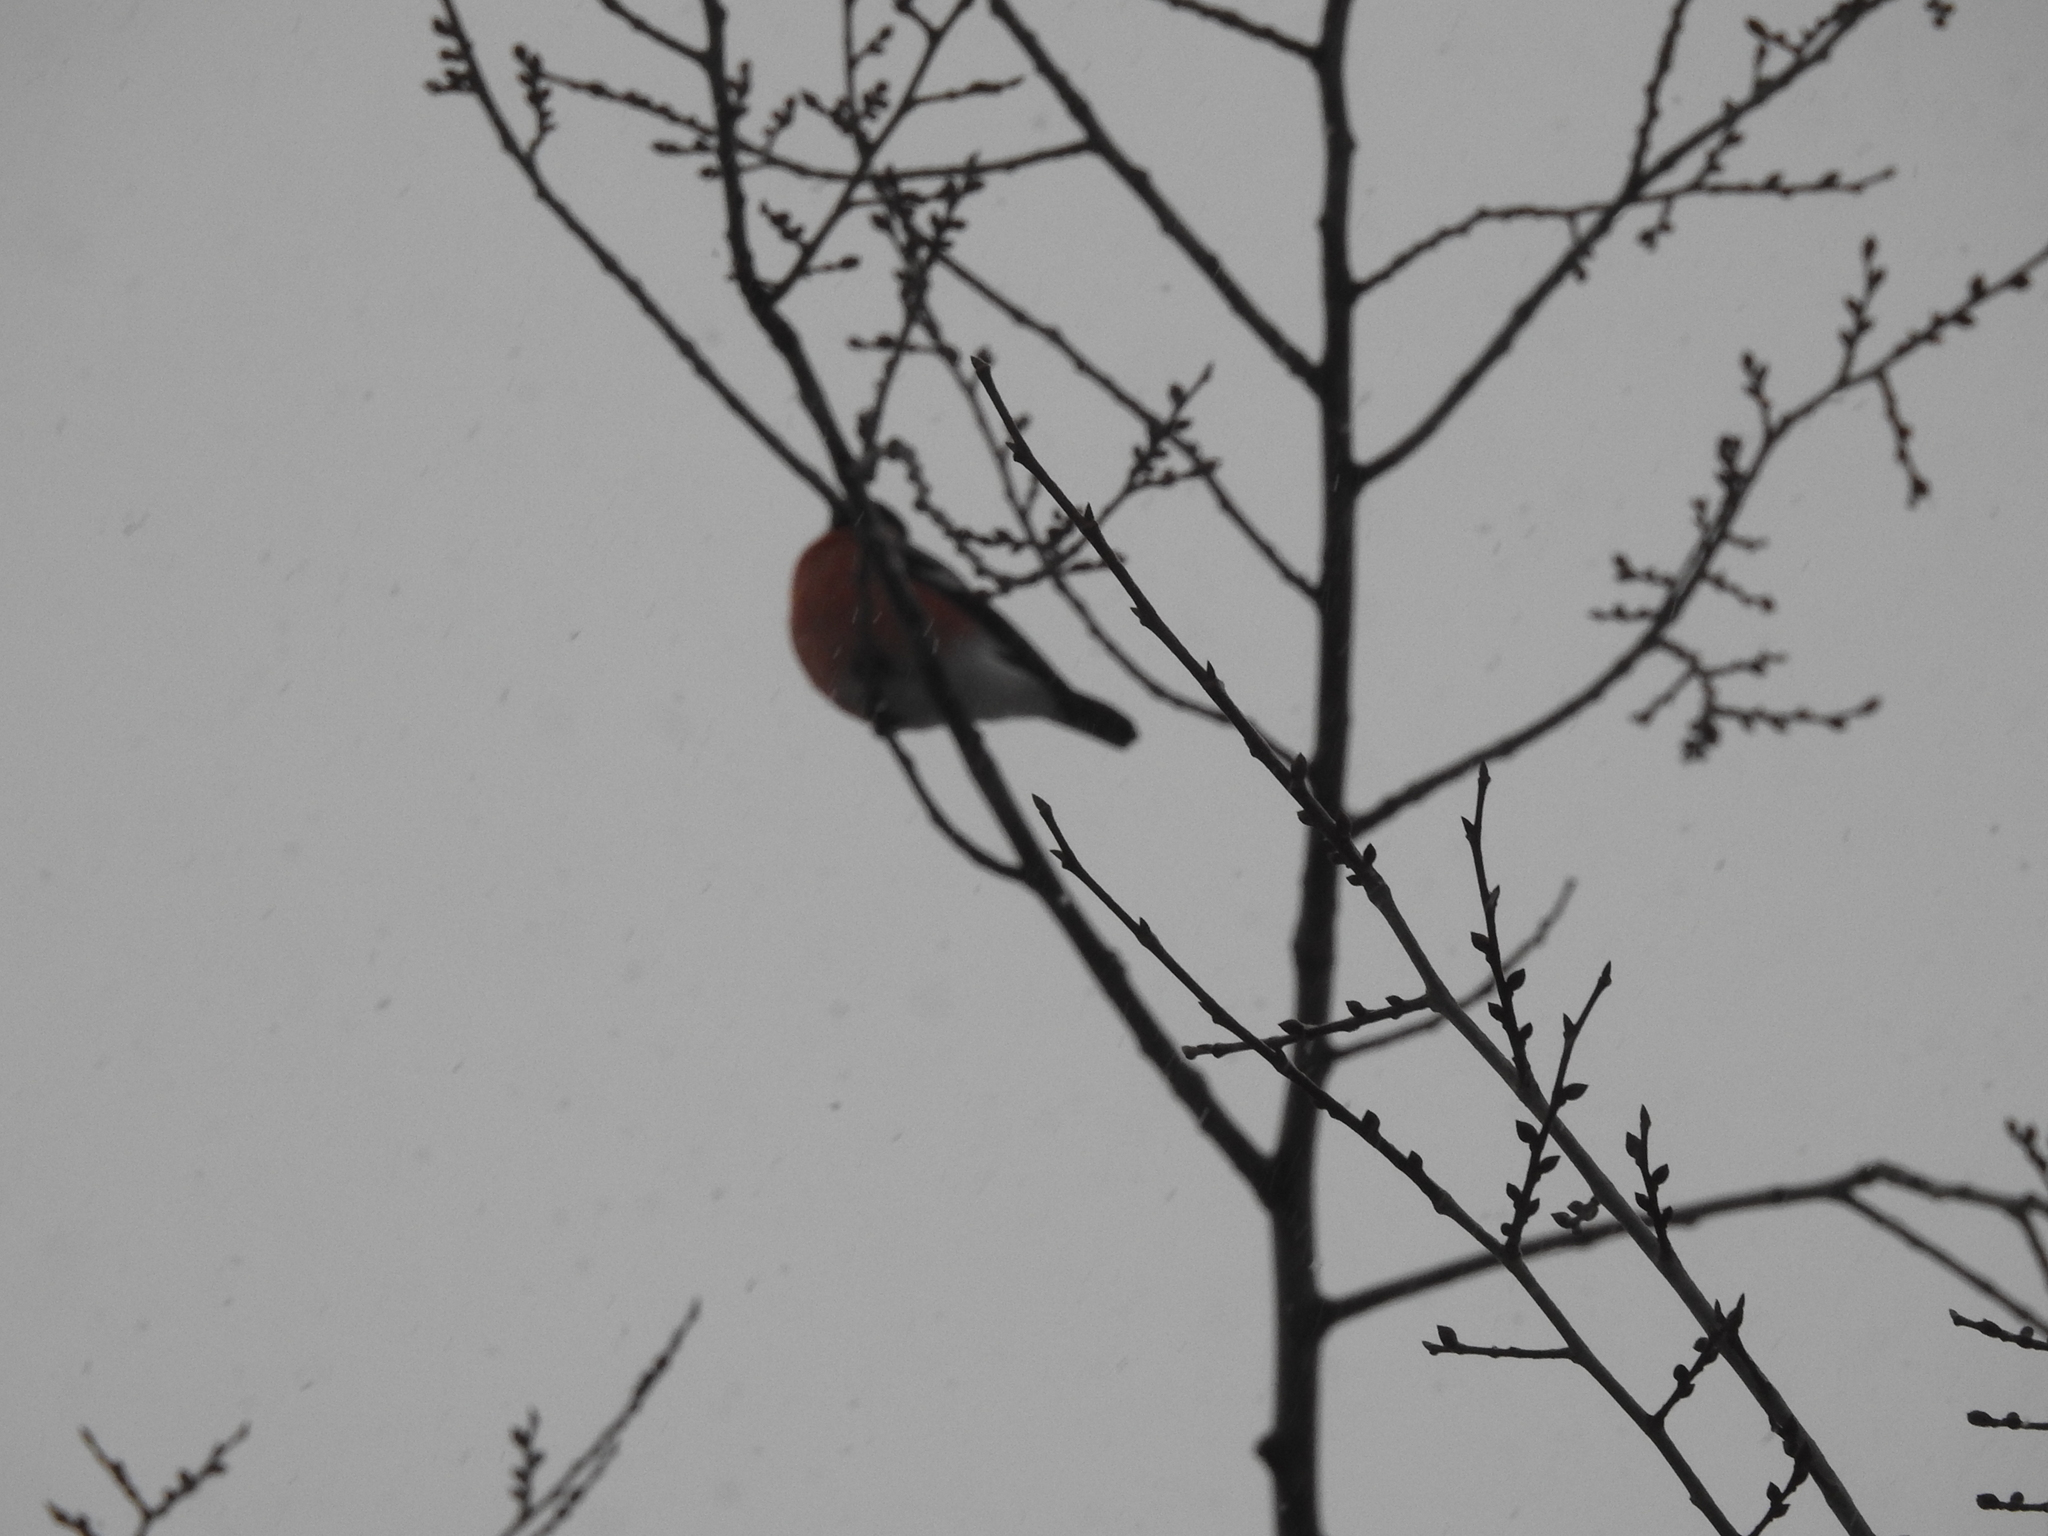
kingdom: Animalia
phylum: Chordata
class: Aves
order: Passeriformes
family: Fringillidae
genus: Pyrrhula
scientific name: Pyrrhula pyrrhula
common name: Eurasian bullfinch
